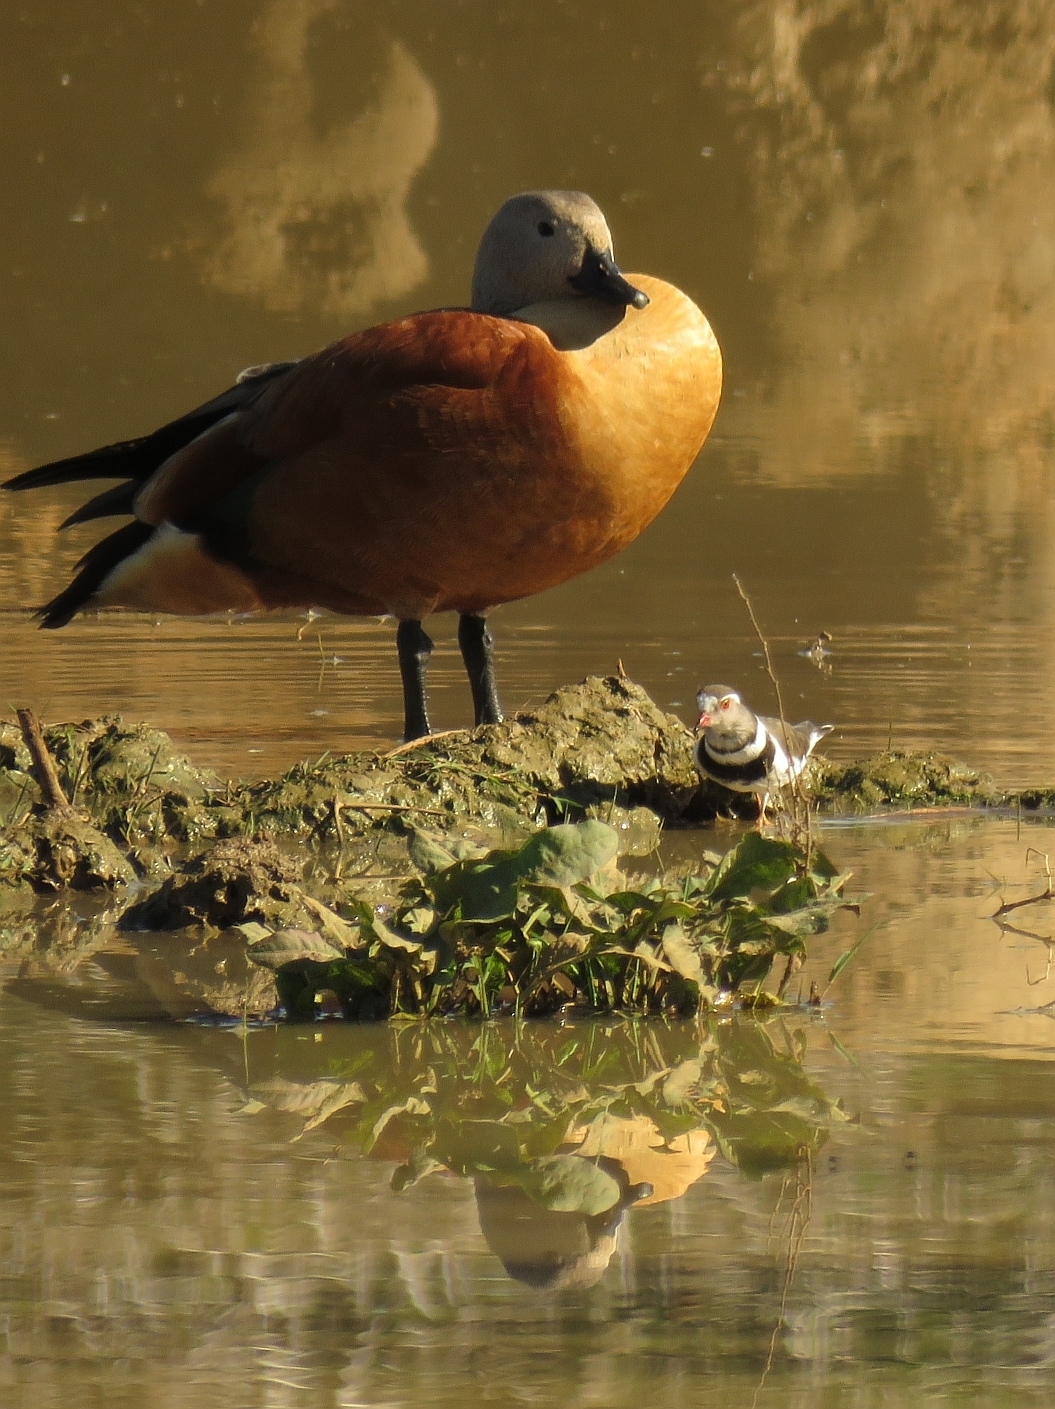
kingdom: Animalia
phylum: Chordata
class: Aves
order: Anseriformes
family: Anatidae
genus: Tadorna
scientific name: Tadorna cana
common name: South african shelduck
